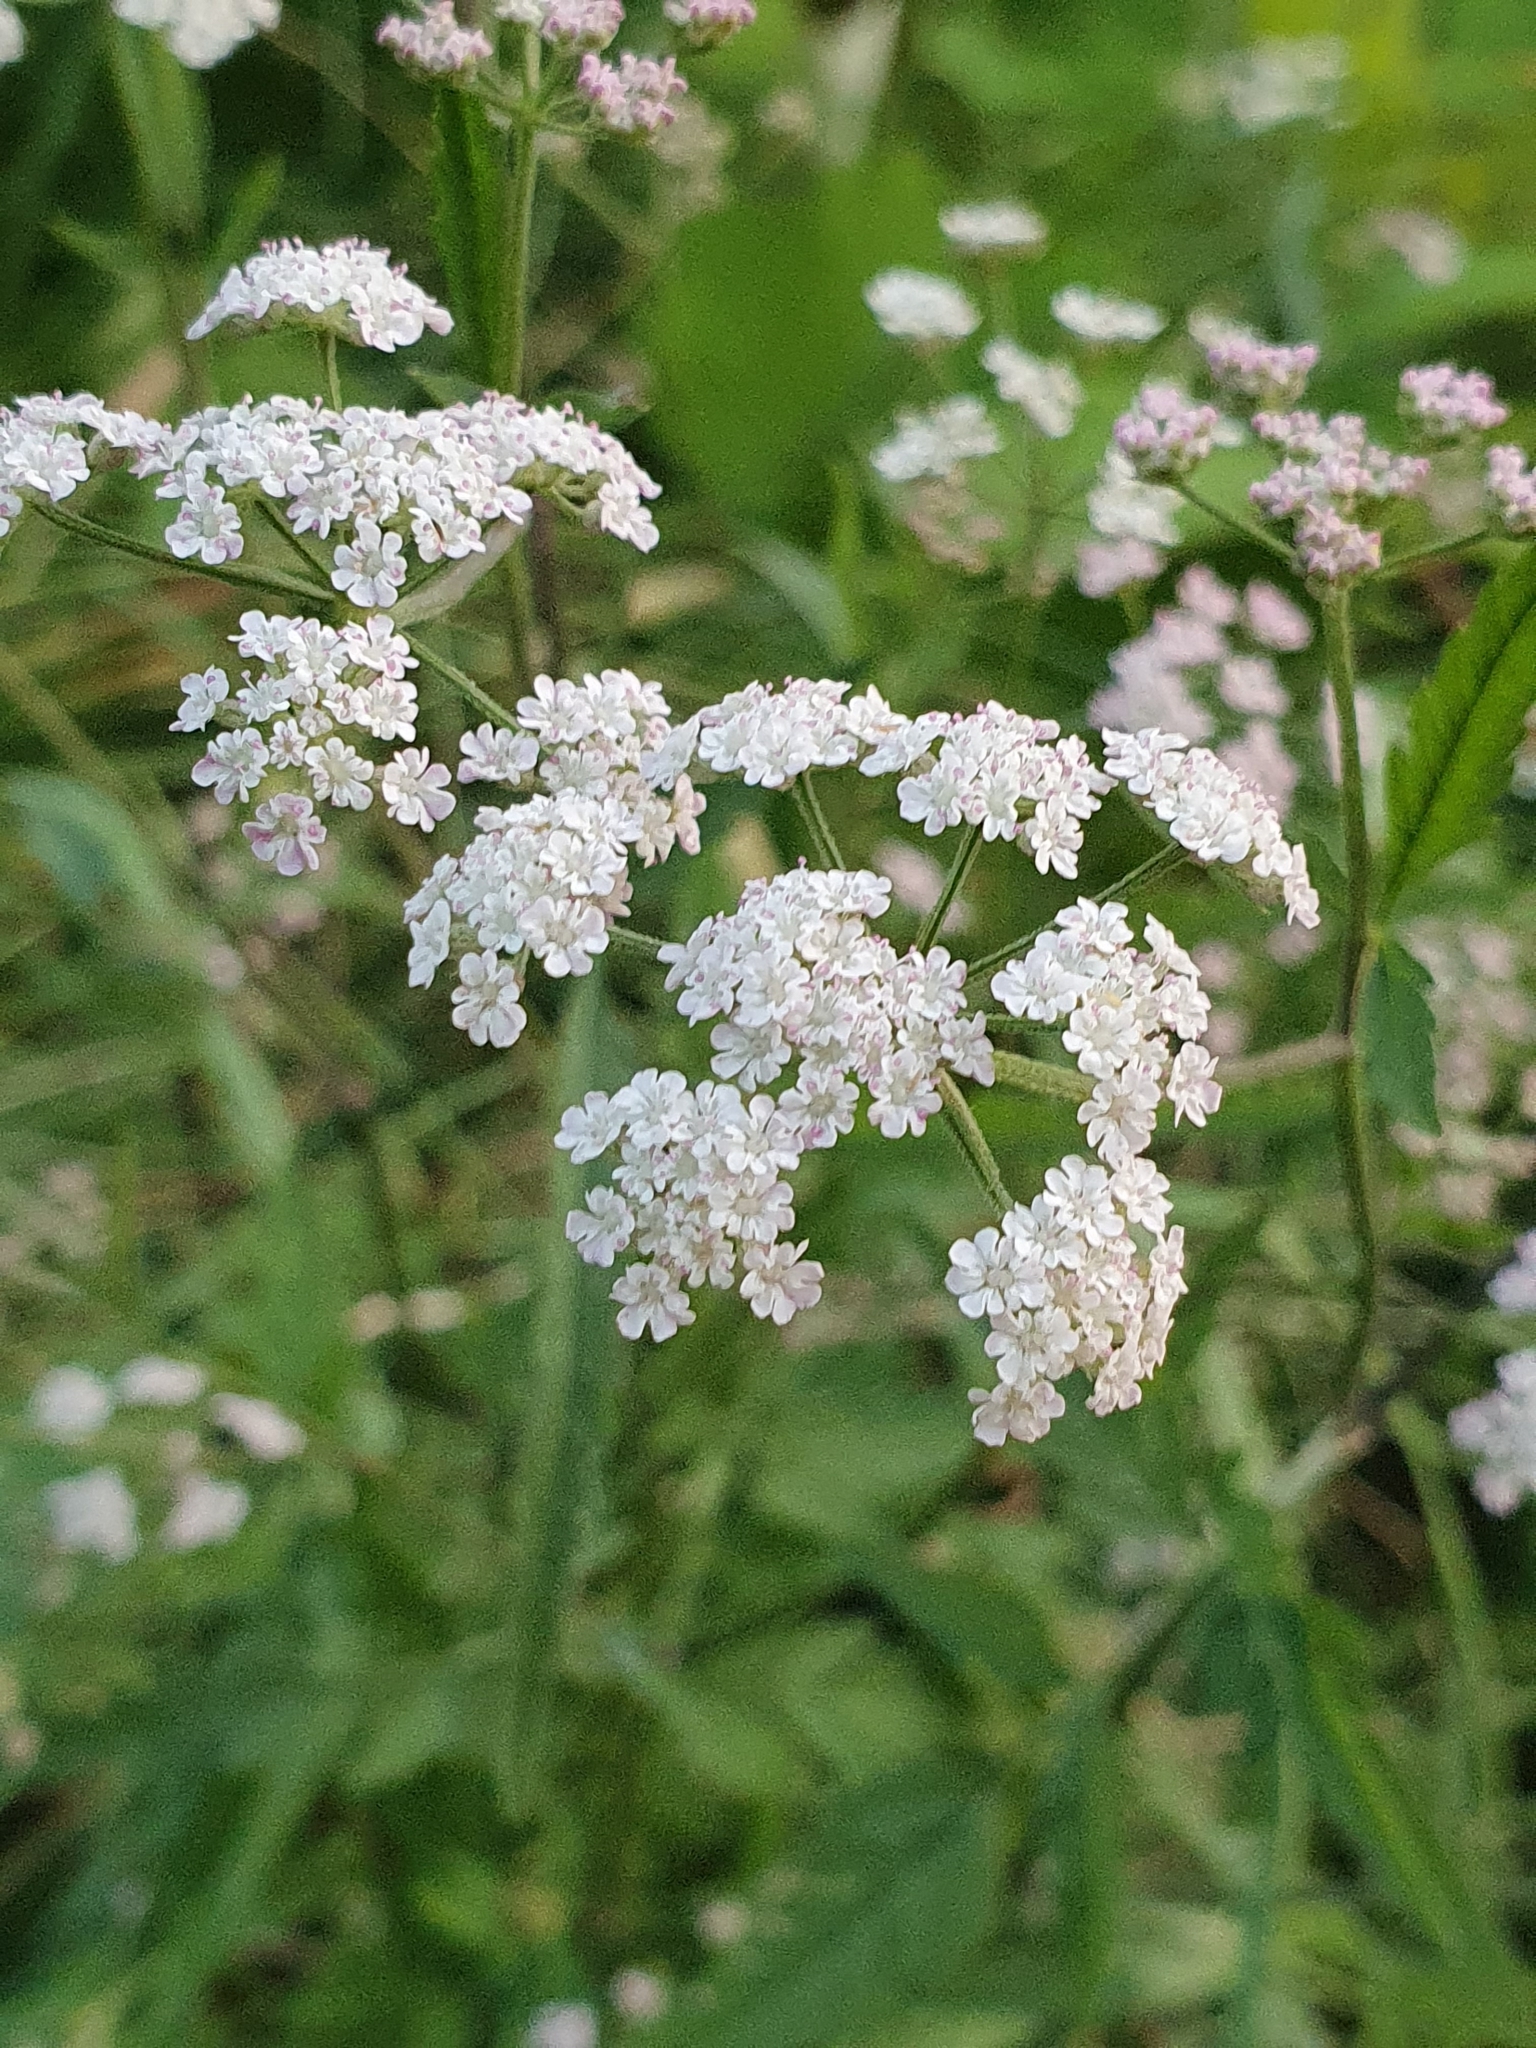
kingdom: Plantae
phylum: Tracheophyta
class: Magnoliopsida
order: Apiales
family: Apiaceae
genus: Torilis
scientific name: Torilis japonica
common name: Upright hedge-parsley
